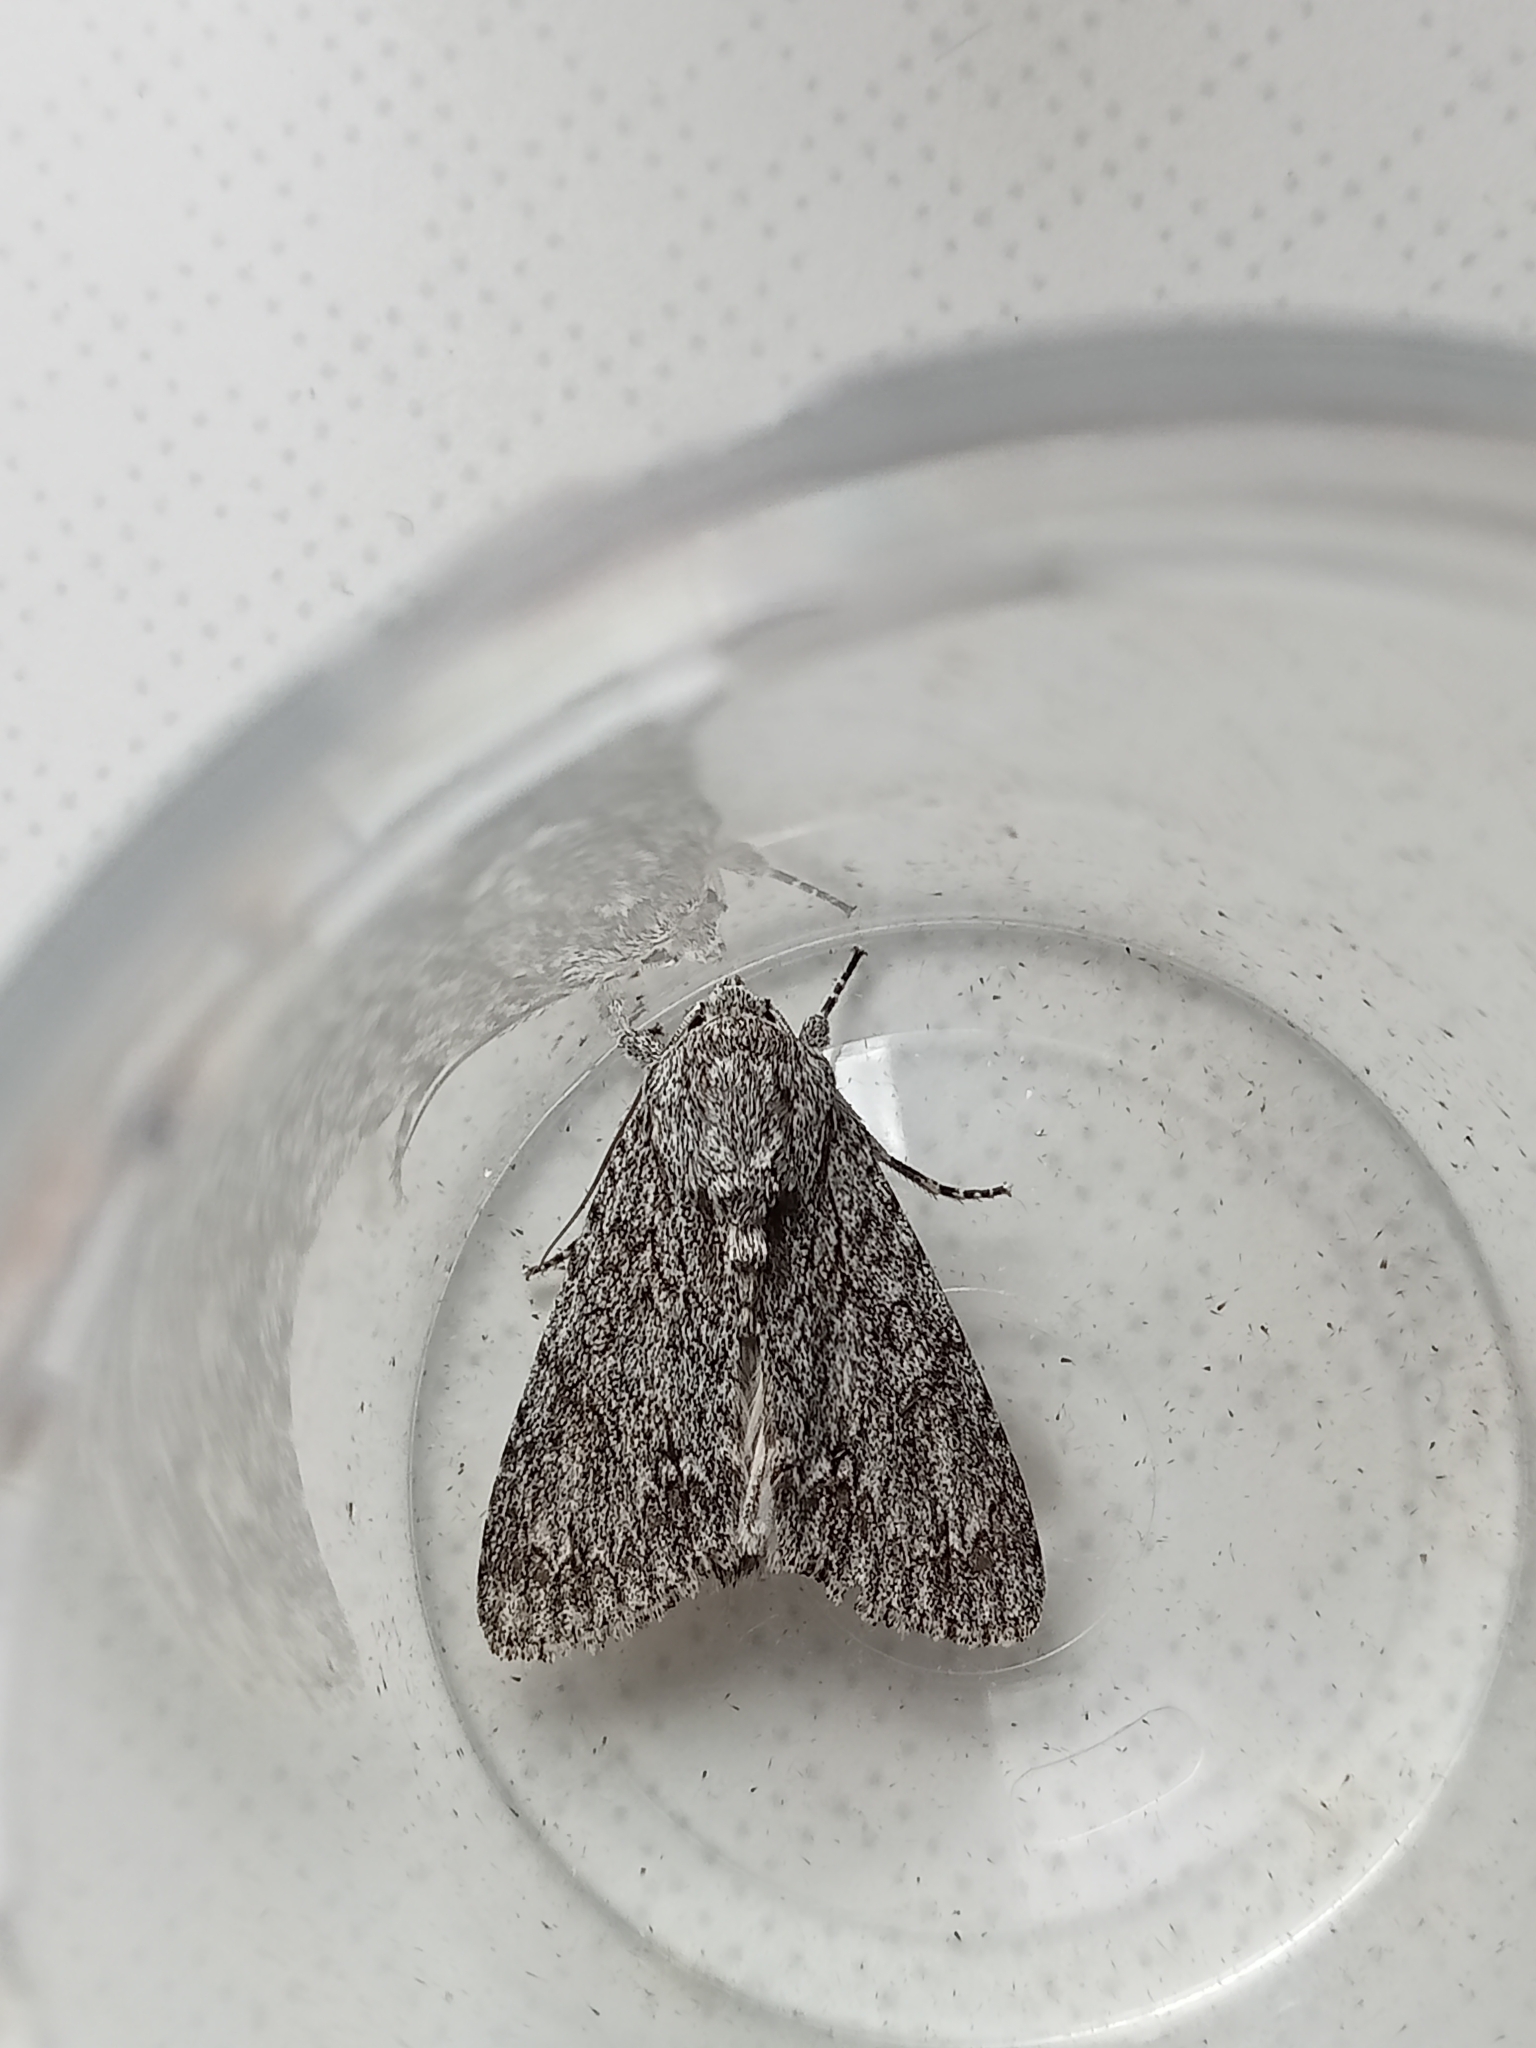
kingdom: Animalia
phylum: Arthropoda
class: Insecta
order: Lepidoptera
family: Noctuidae
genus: Acronicta
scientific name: Acronicta aceris
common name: Sycamore
